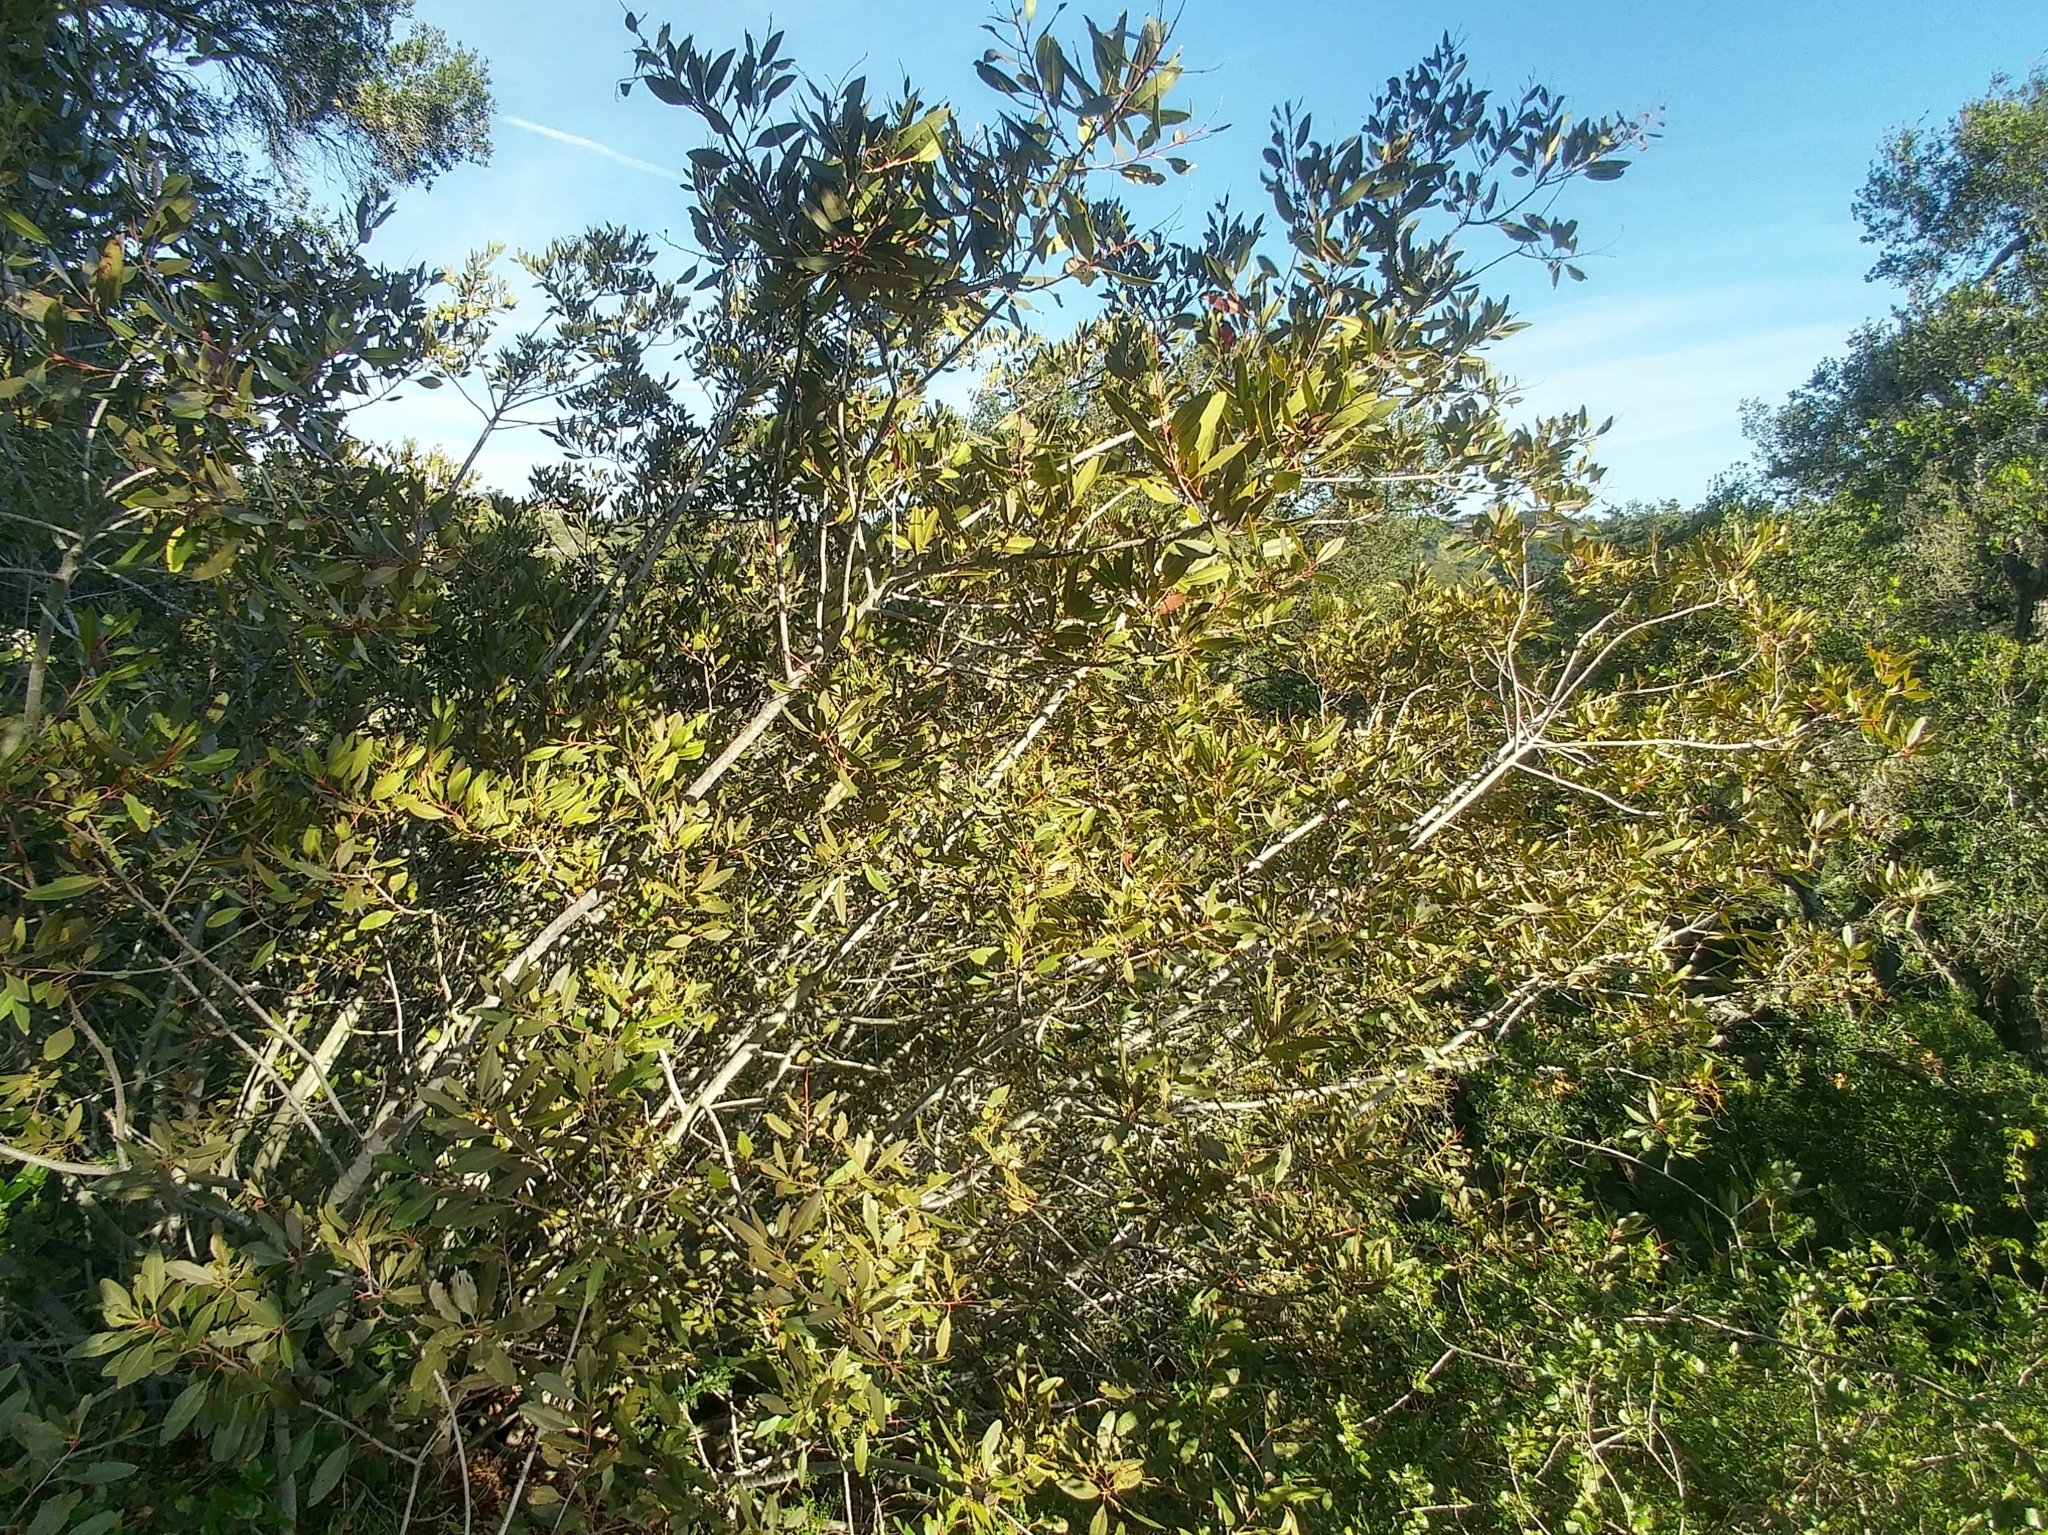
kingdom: Plantae
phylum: Tracheophyta
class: Magnoliopsida
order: Rosales
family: Rosaceae
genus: Heteromeles
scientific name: Heteromeles arbutifolia
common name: California-holly
